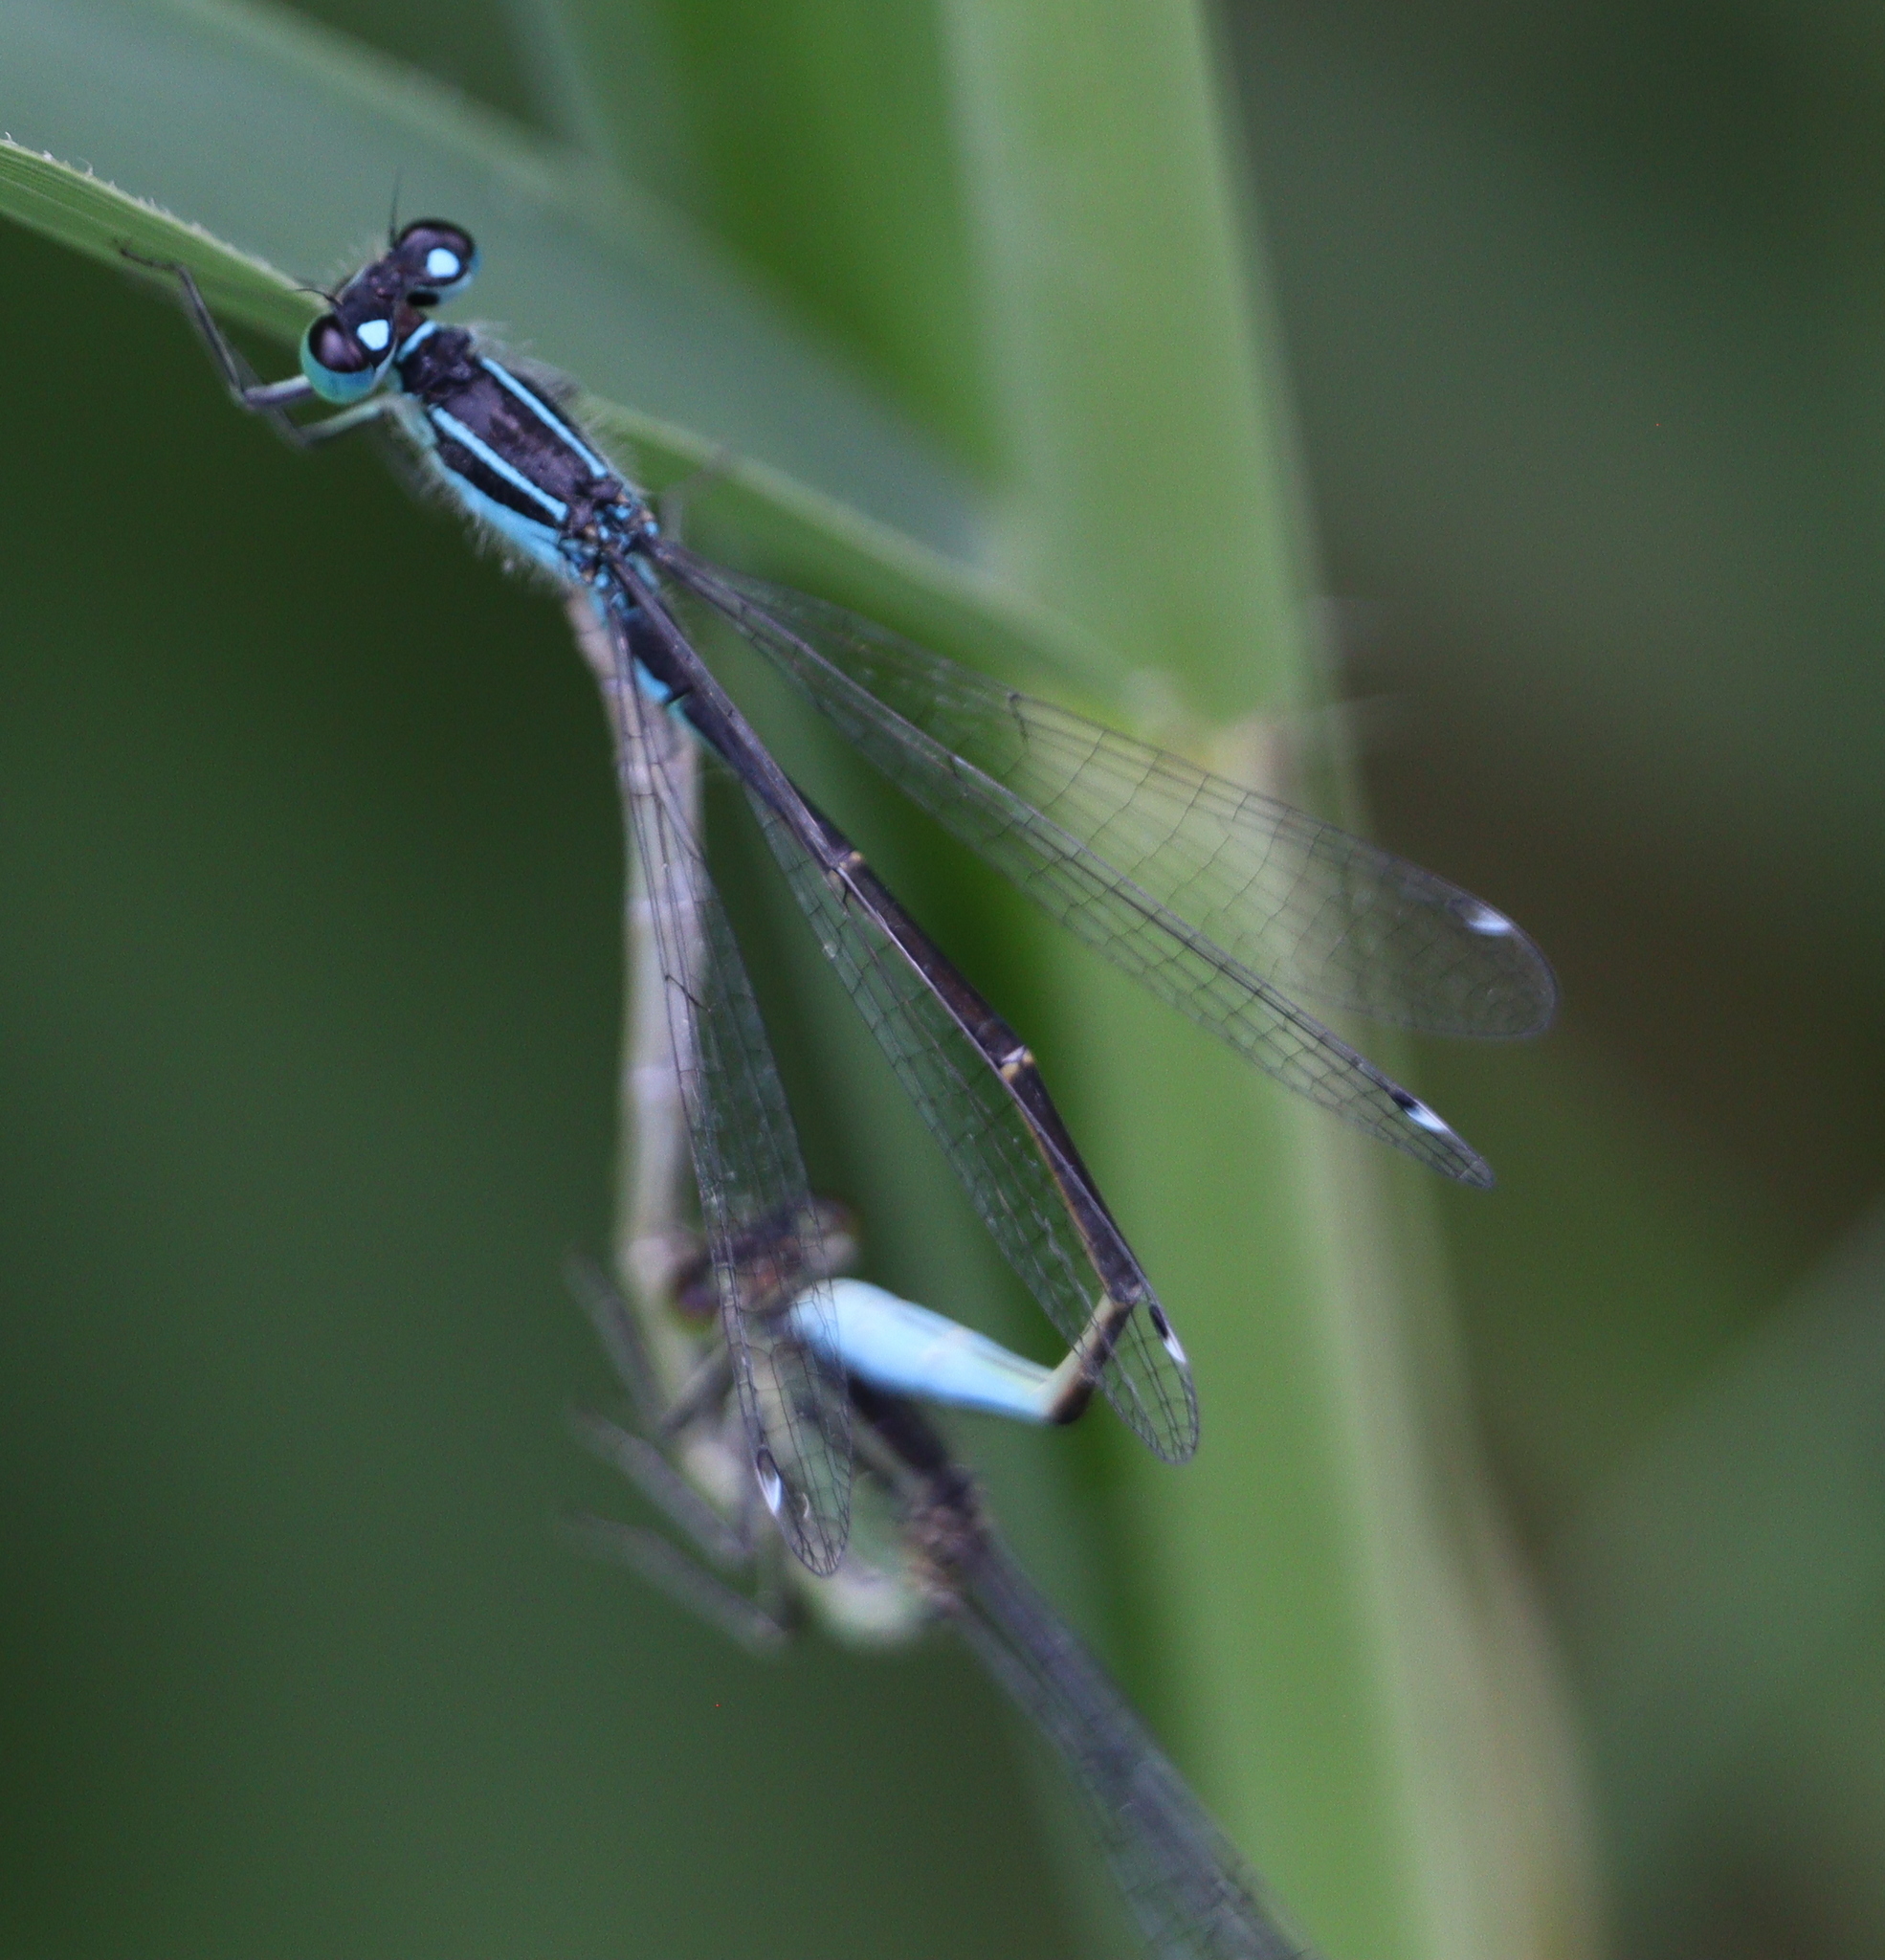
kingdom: Animalia
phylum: Arthropoda
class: Insecta
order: Odonata
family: Coenagrionidae
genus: Ischnura
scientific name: Ischnura elegans
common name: Blue-tailed damselfly
